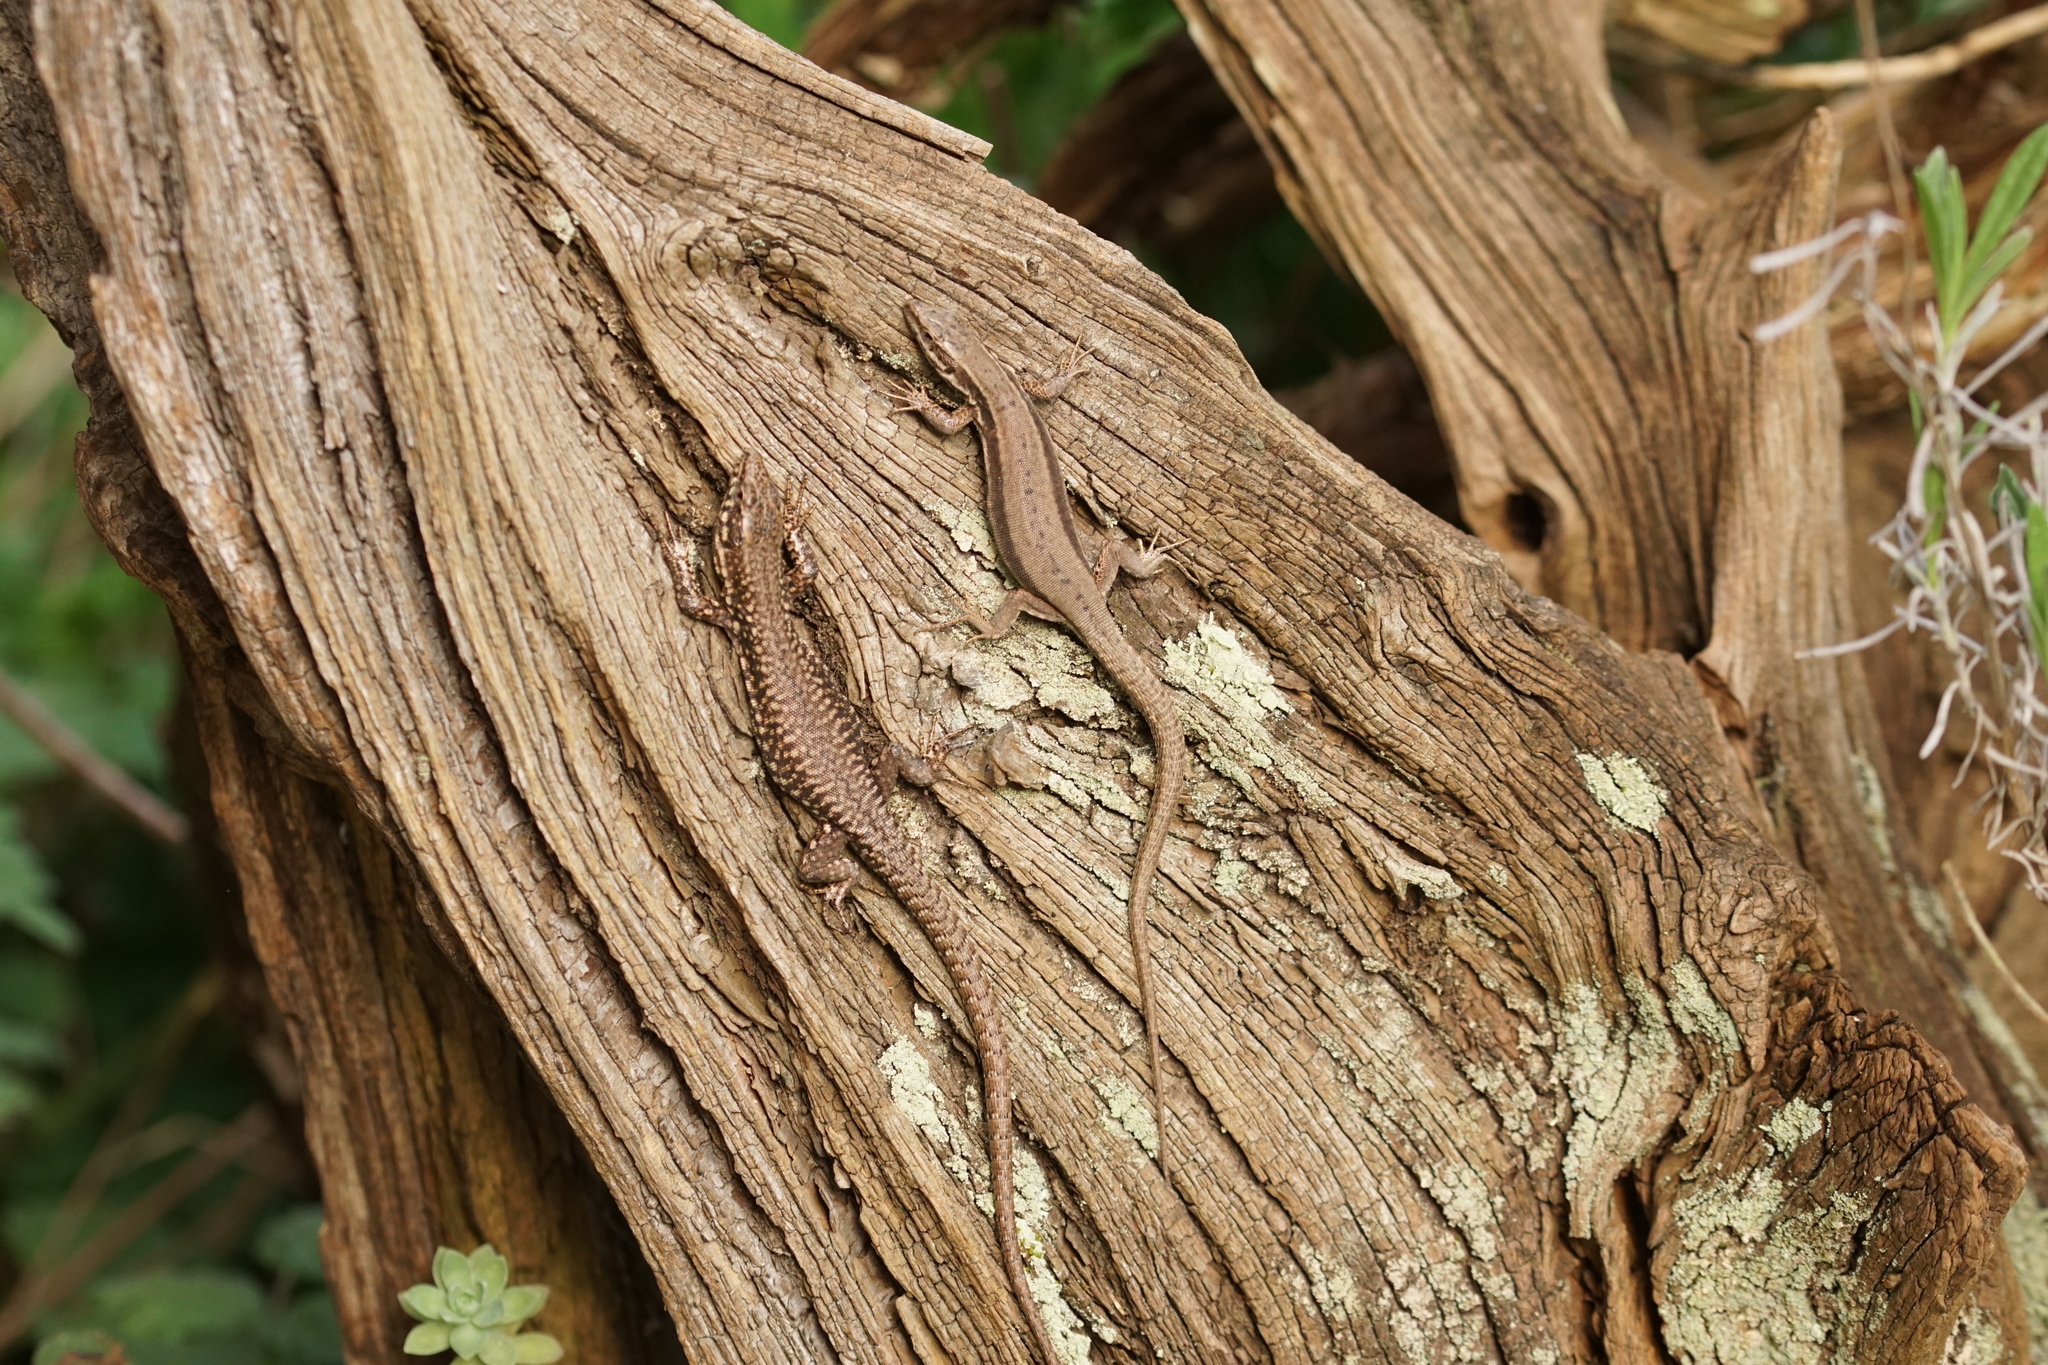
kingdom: Animalia
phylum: Chordata
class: Squamata
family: Lacertidae
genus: Podarcis
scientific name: Podarcis muralis
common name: Common wall lizard
